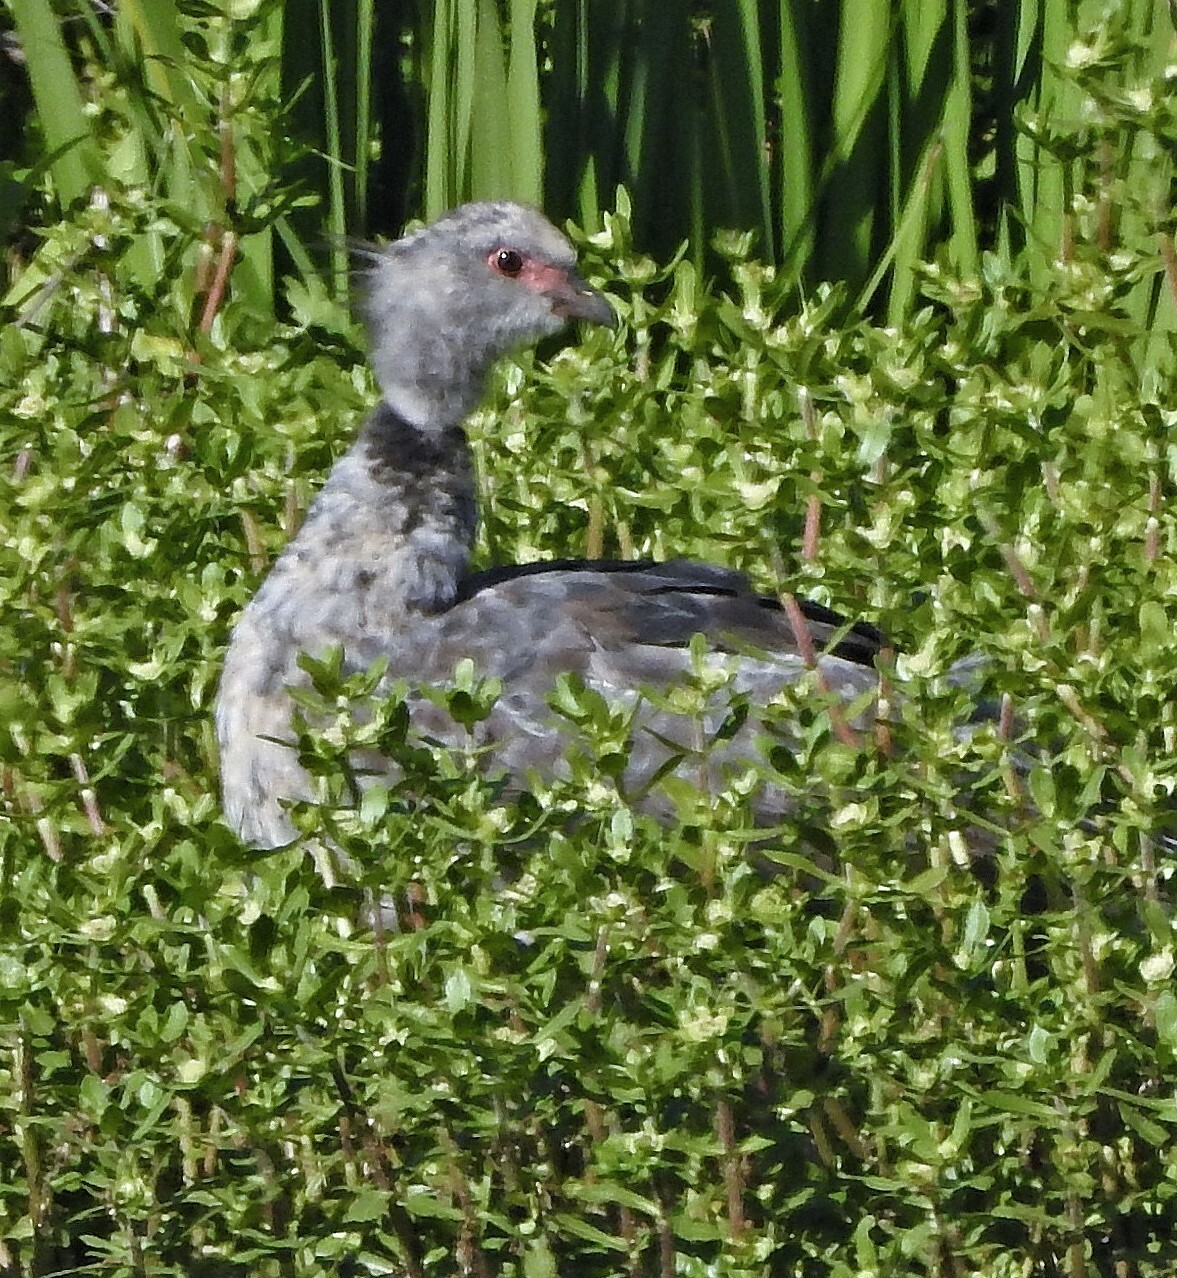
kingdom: Animalia
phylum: Chordata
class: Aves
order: Anseriformes
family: Anhimidae
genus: Chauna
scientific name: Chauna torquata
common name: Southern screamer
